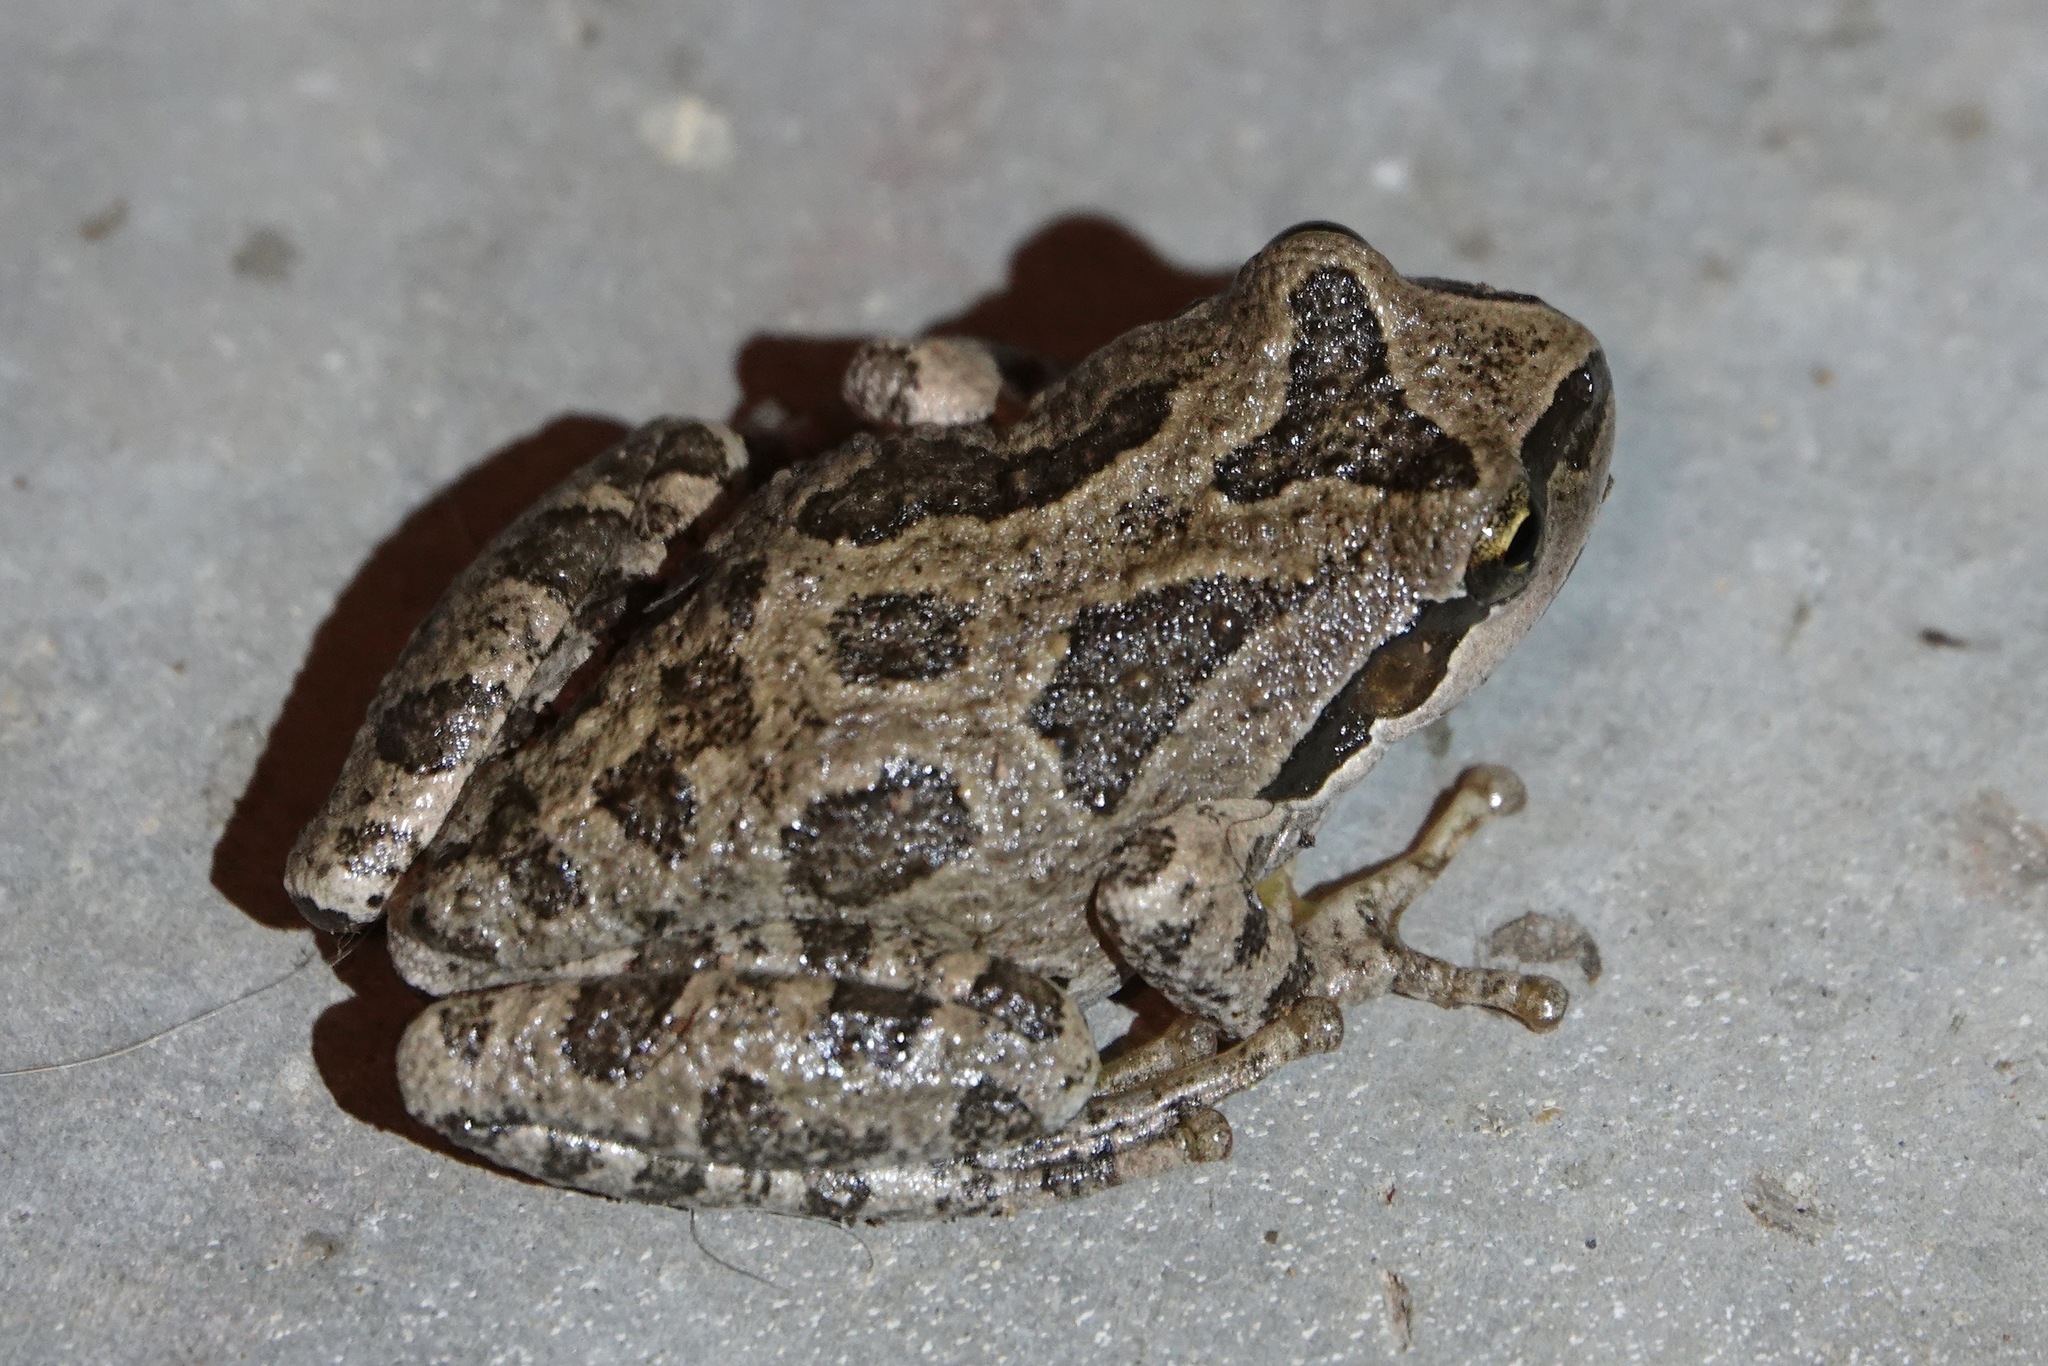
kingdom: Animalia
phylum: Chordata
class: Amphibia
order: Anura
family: Hylidae
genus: Pseudacris
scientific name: Pseudacris regilla
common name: Pacific chorus frog
